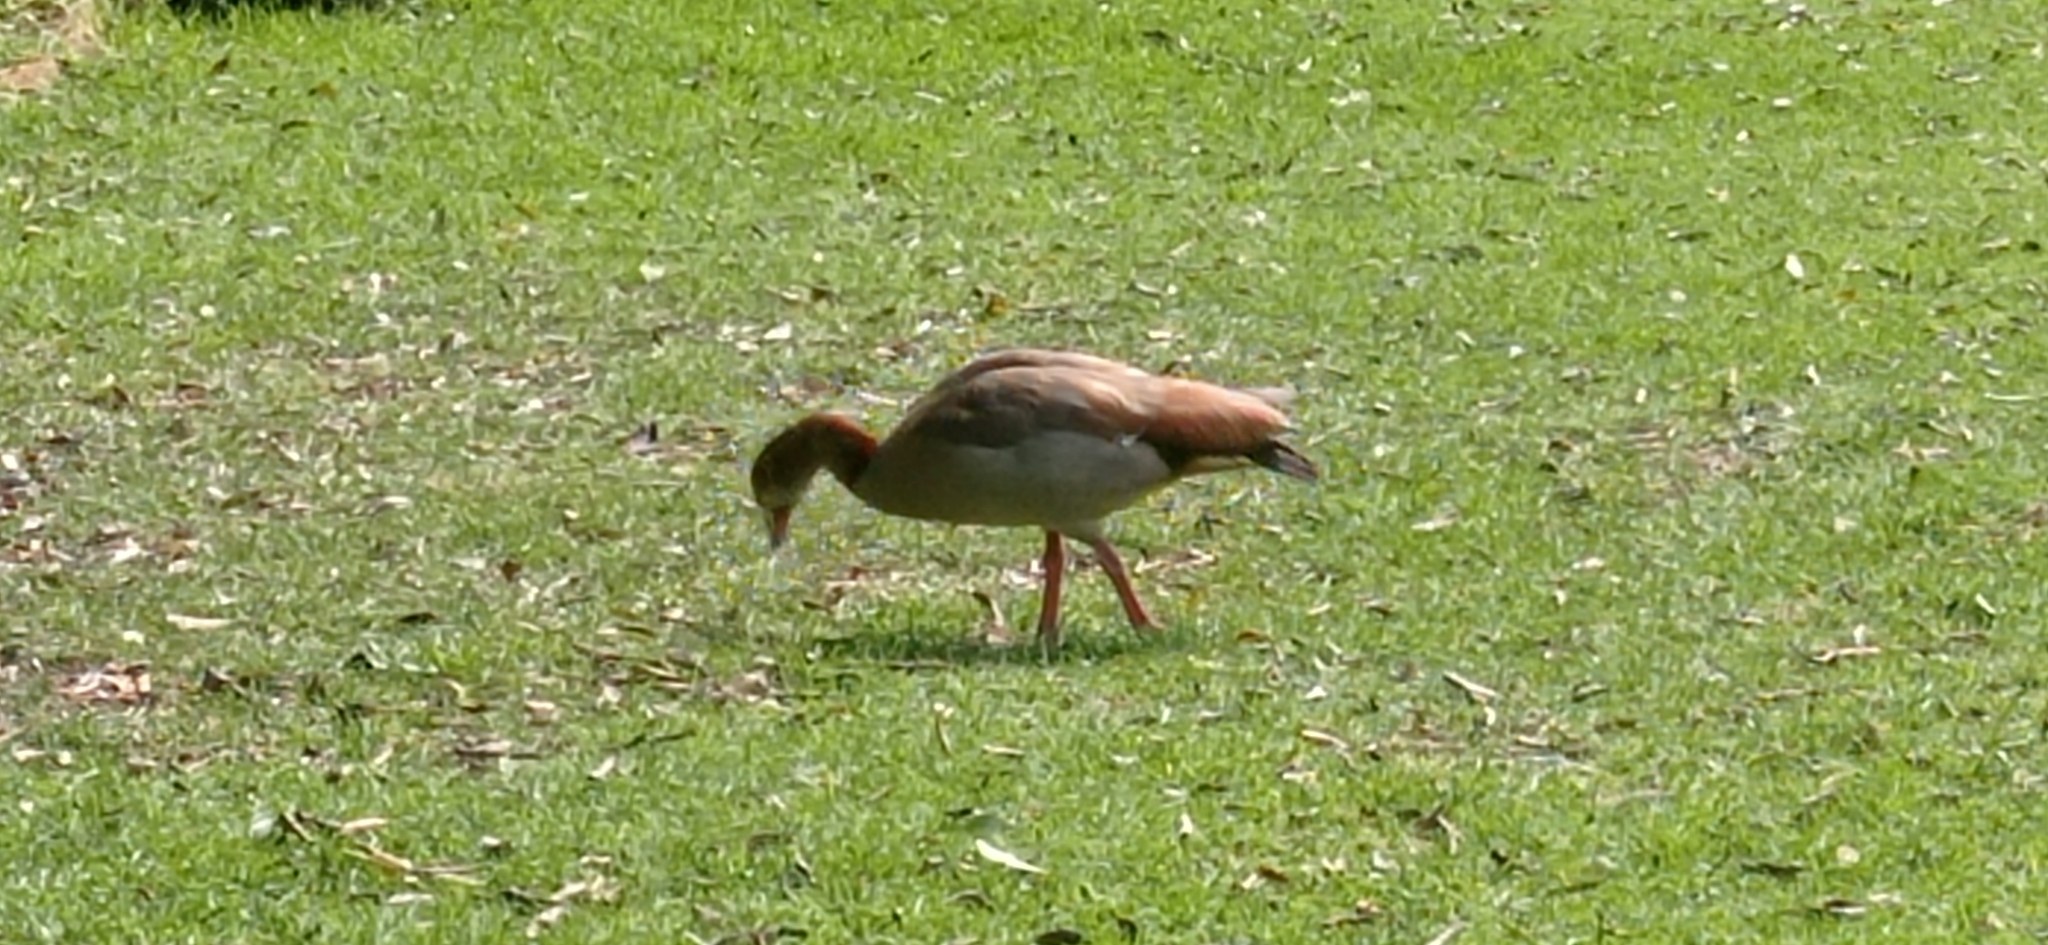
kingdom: Animalia
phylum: Chordata
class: Aves
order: Anseriformes
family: Anatidae
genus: Alopochen
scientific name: Alopochen aegyptiaca
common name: Egyptian goose
